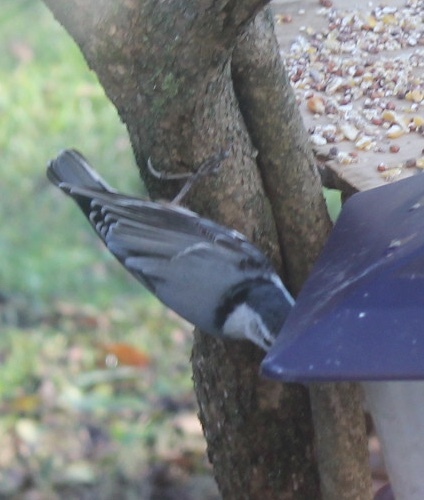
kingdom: Animalia
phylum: Chordata
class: Aves
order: Passeriformes
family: Sittidae
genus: Sitta
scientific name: Sitta carolinensis
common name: White-breasted nuthatch
